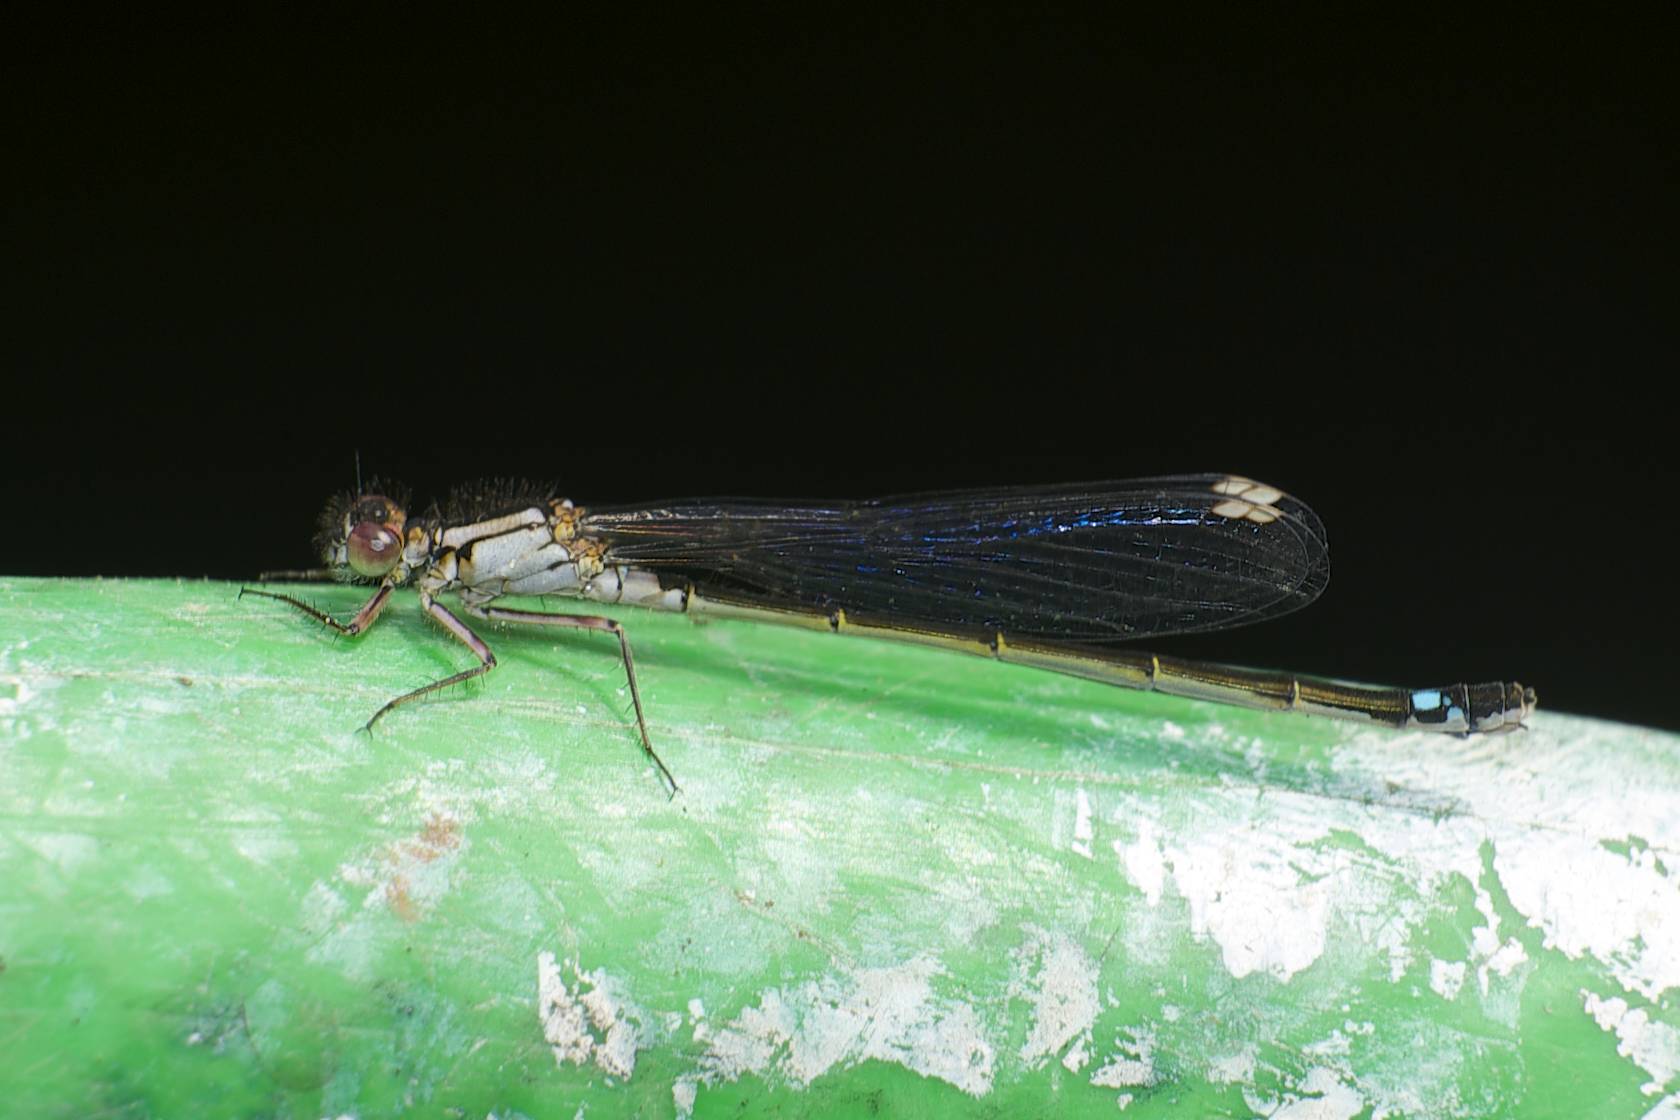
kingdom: Animalia
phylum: Arthropoda
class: Insecta
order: Odonata
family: Coenagrionidae
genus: Ischnura
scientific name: Ischnura cervula
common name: Pacific forktail
